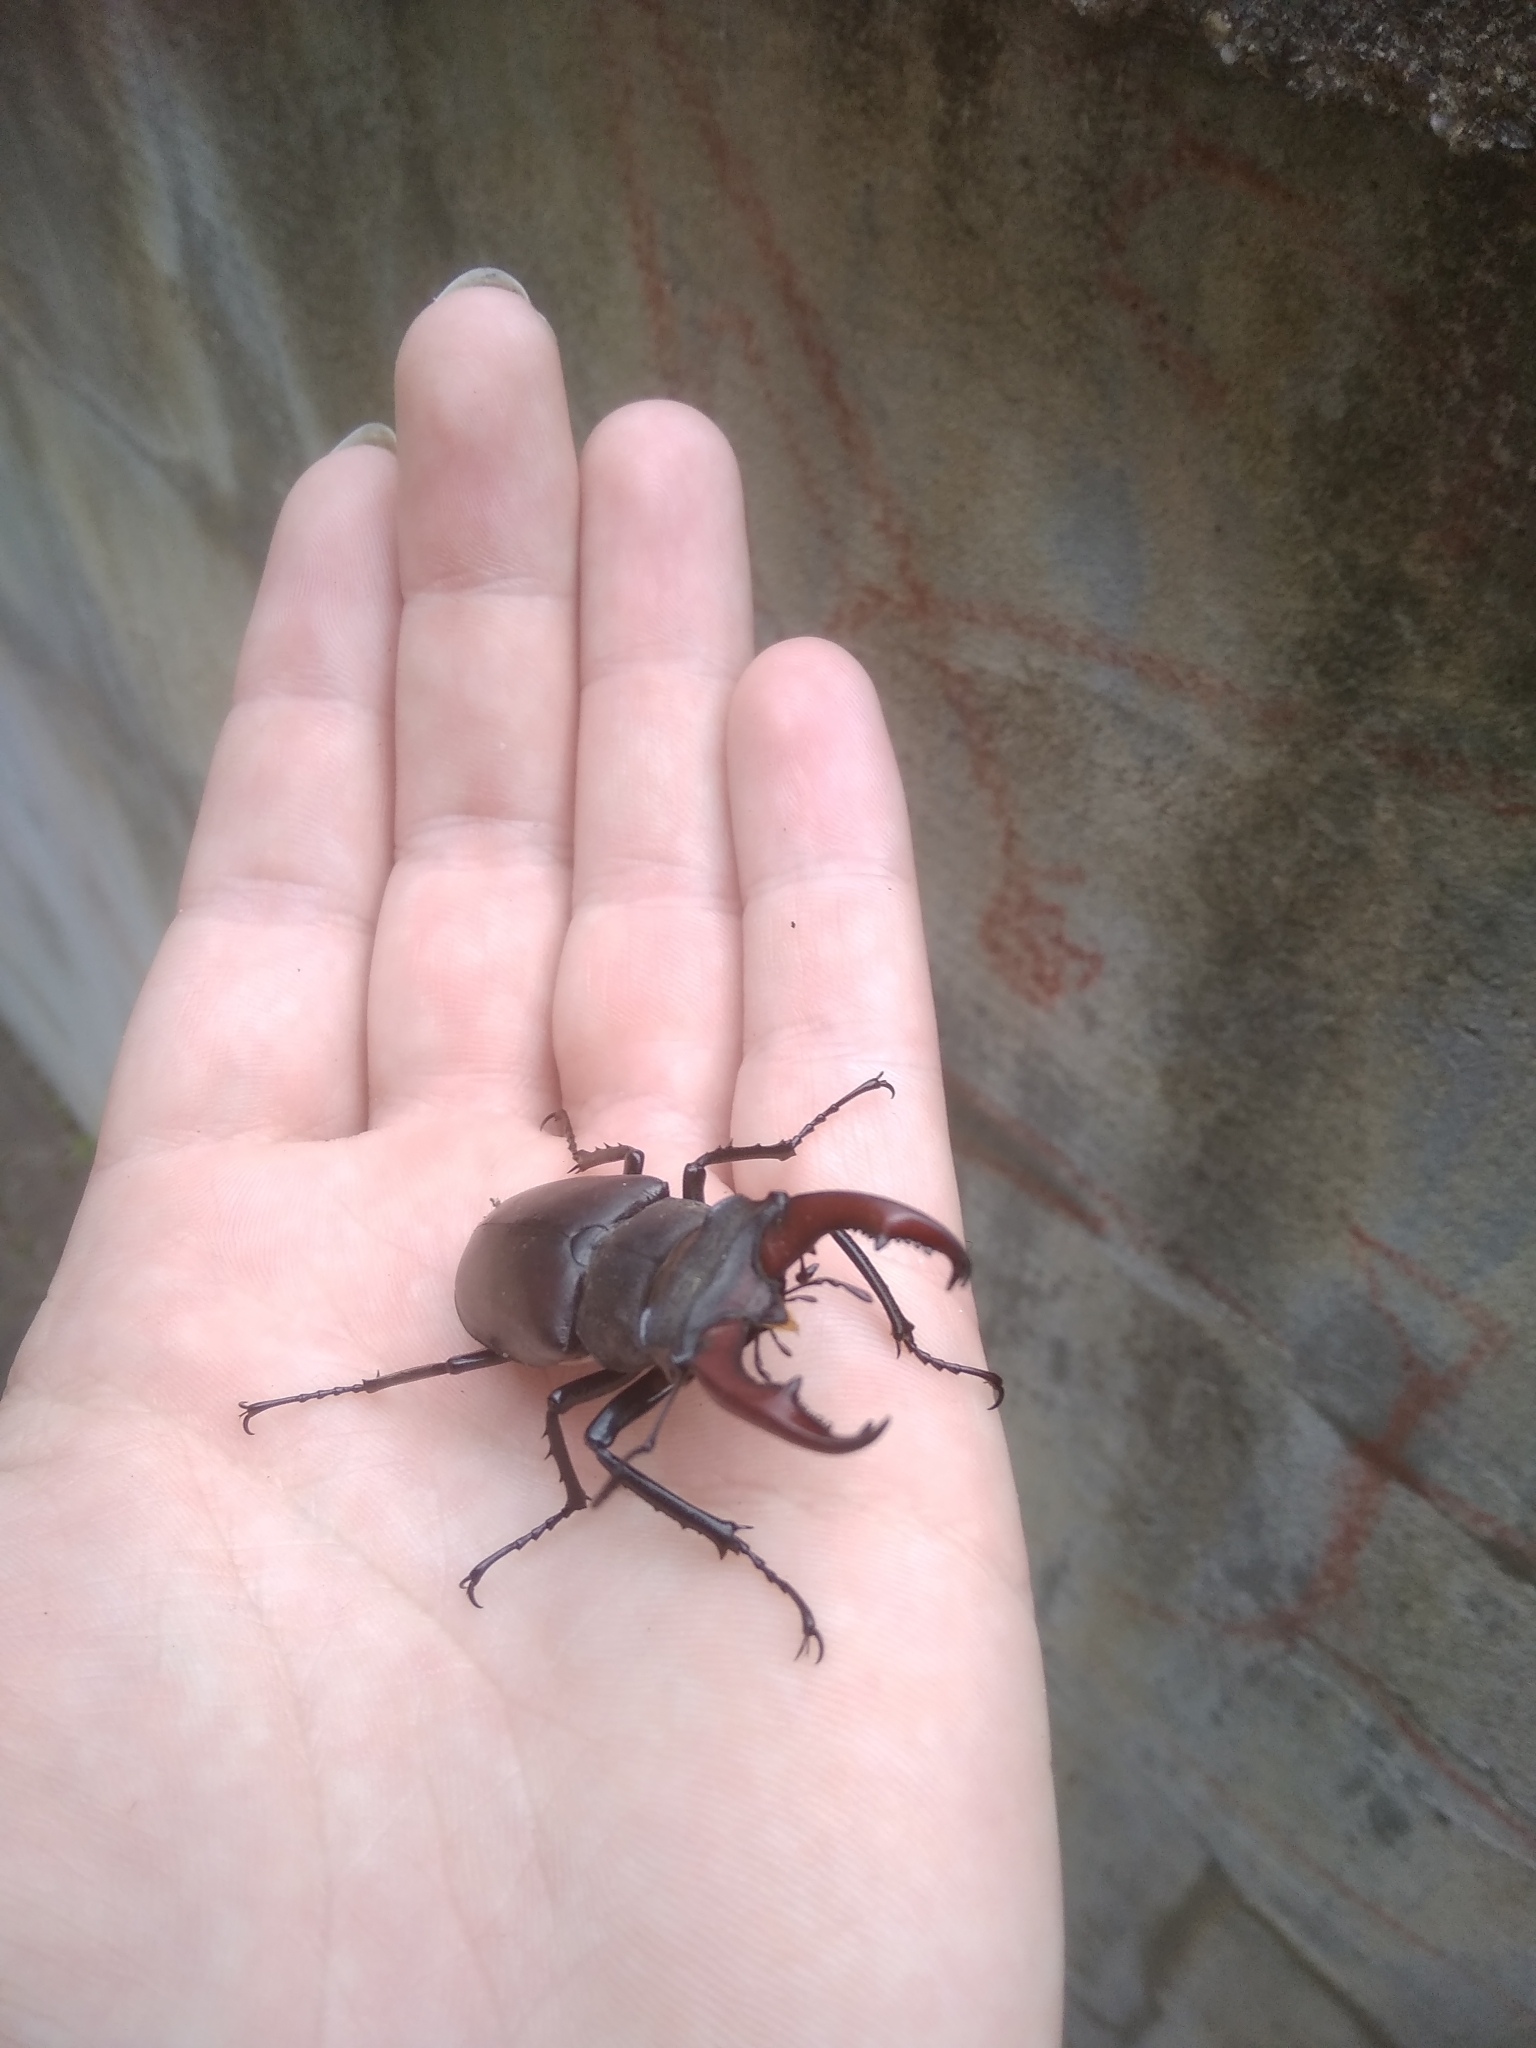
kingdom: Animalia
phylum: Arthropoda
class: Insecta
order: Coleoptera
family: Lucanidae
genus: Lucanus
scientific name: Lucanus cervus
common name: Stag beetle
